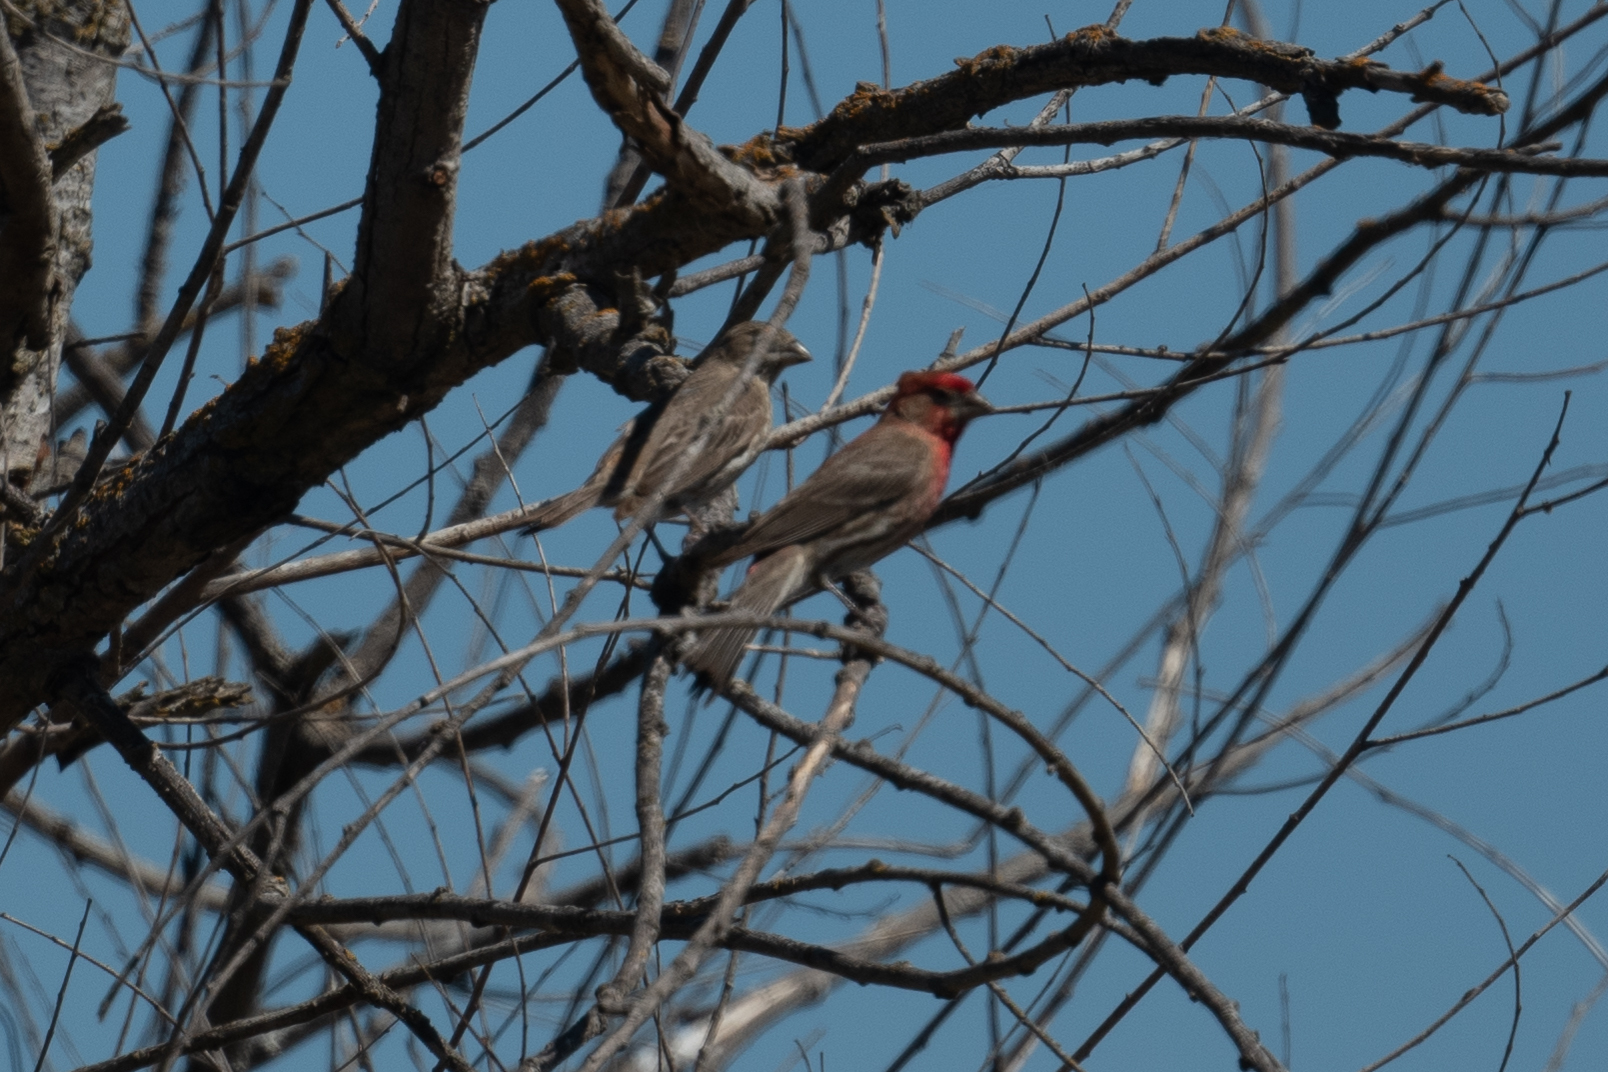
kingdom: Animalia
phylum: Chordata
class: Aves
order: Passeriformes
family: Fringillidae
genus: Haemorhous
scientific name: Haemorhous mexicanus
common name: House finch
